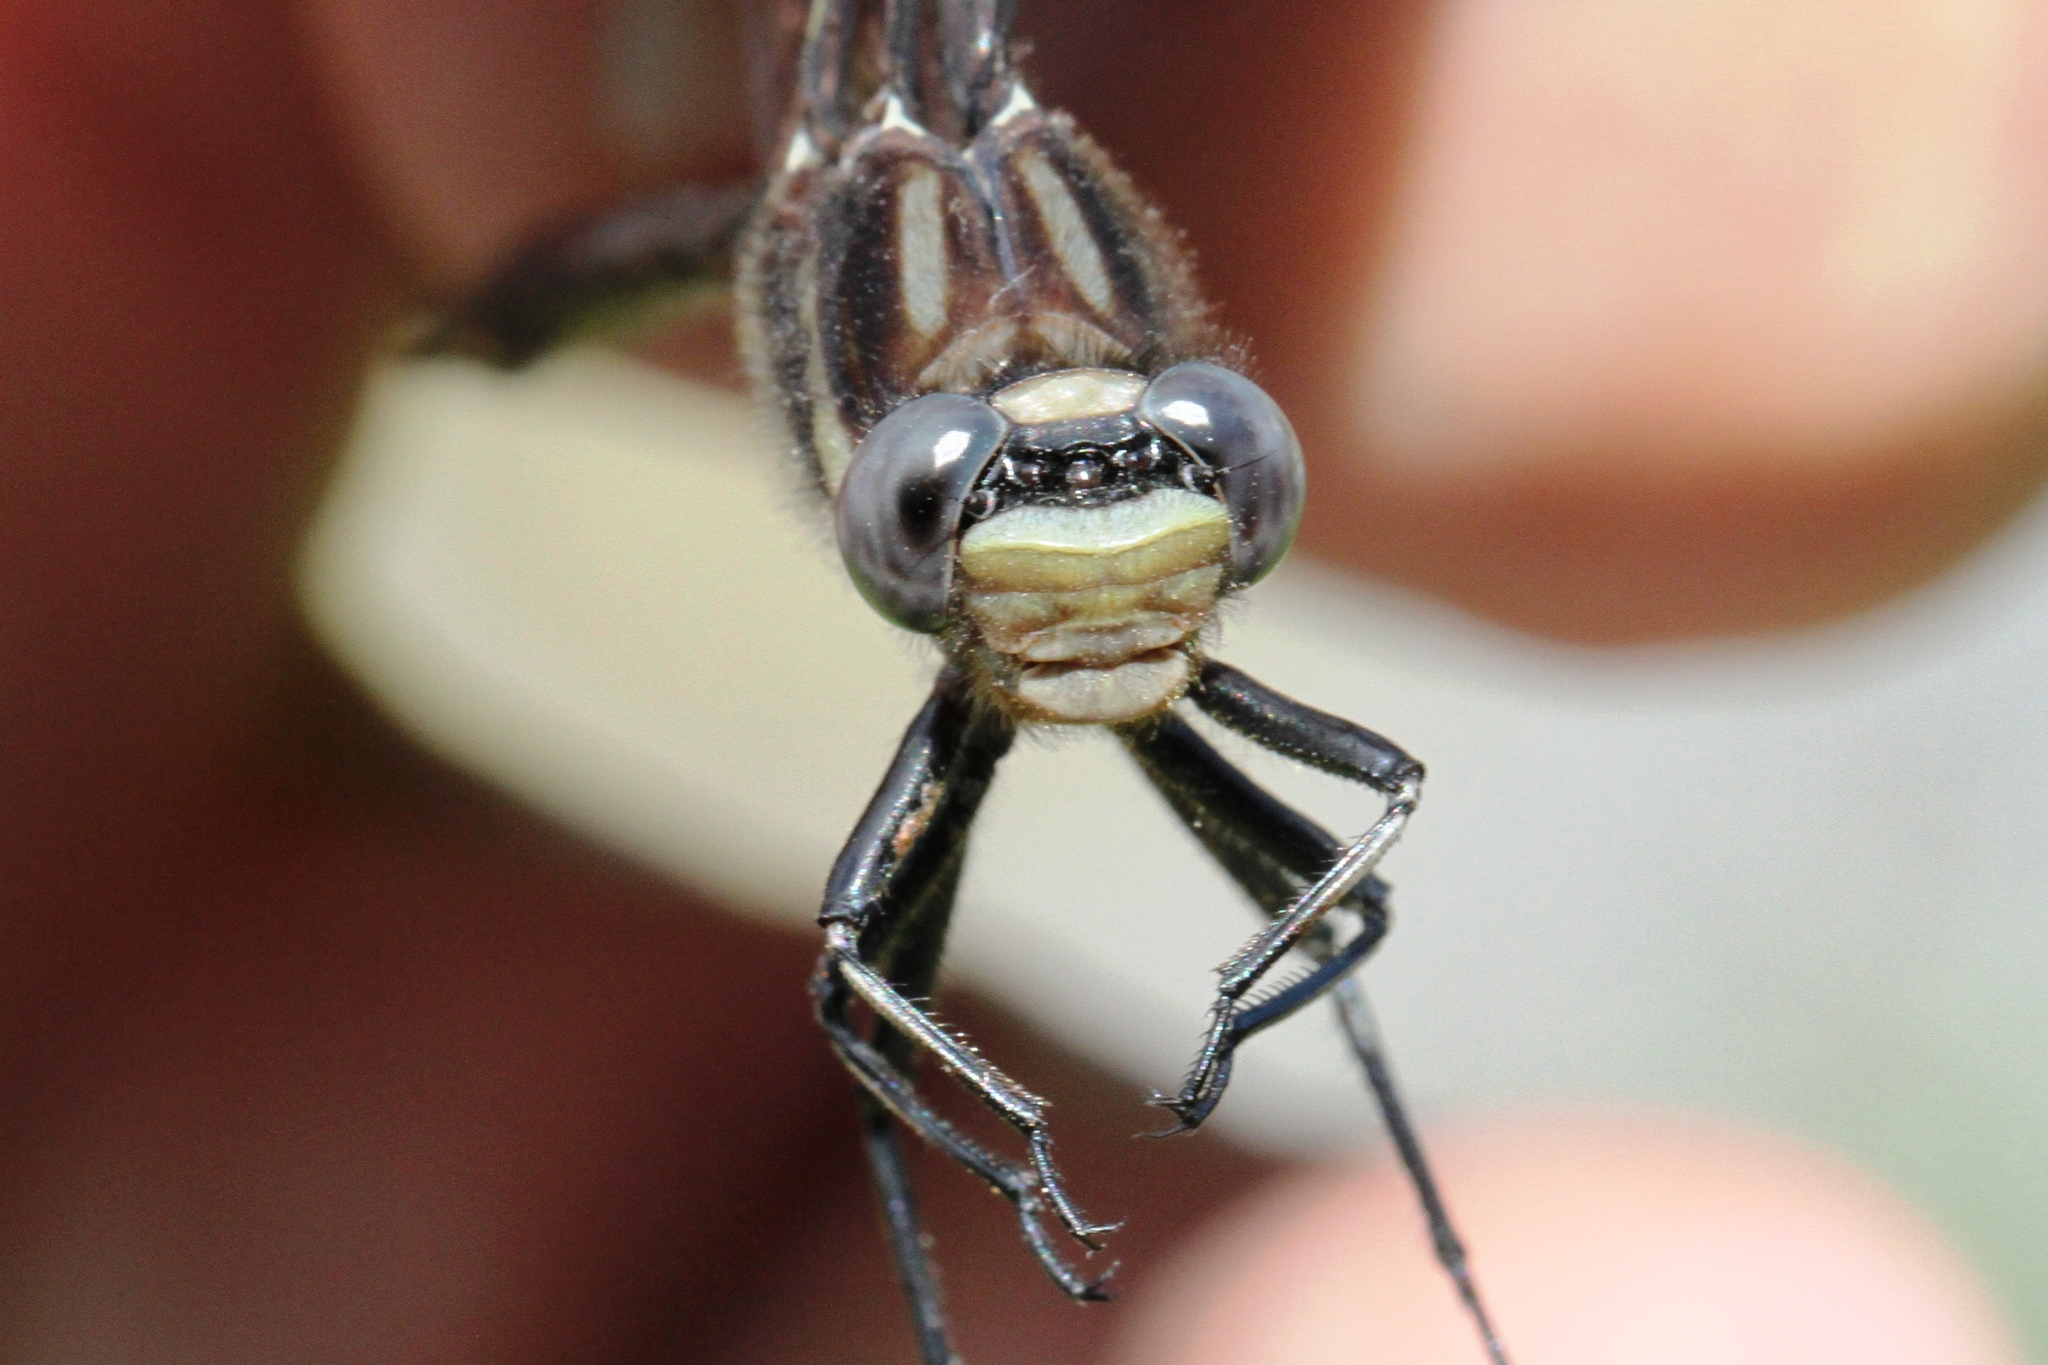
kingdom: Animalia
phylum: Arthropoda
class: Insecta
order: Odonata
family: Gomphidae
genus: Phanogomphus
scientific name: Phanogomphus spicatus
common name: Dusky clubtail
